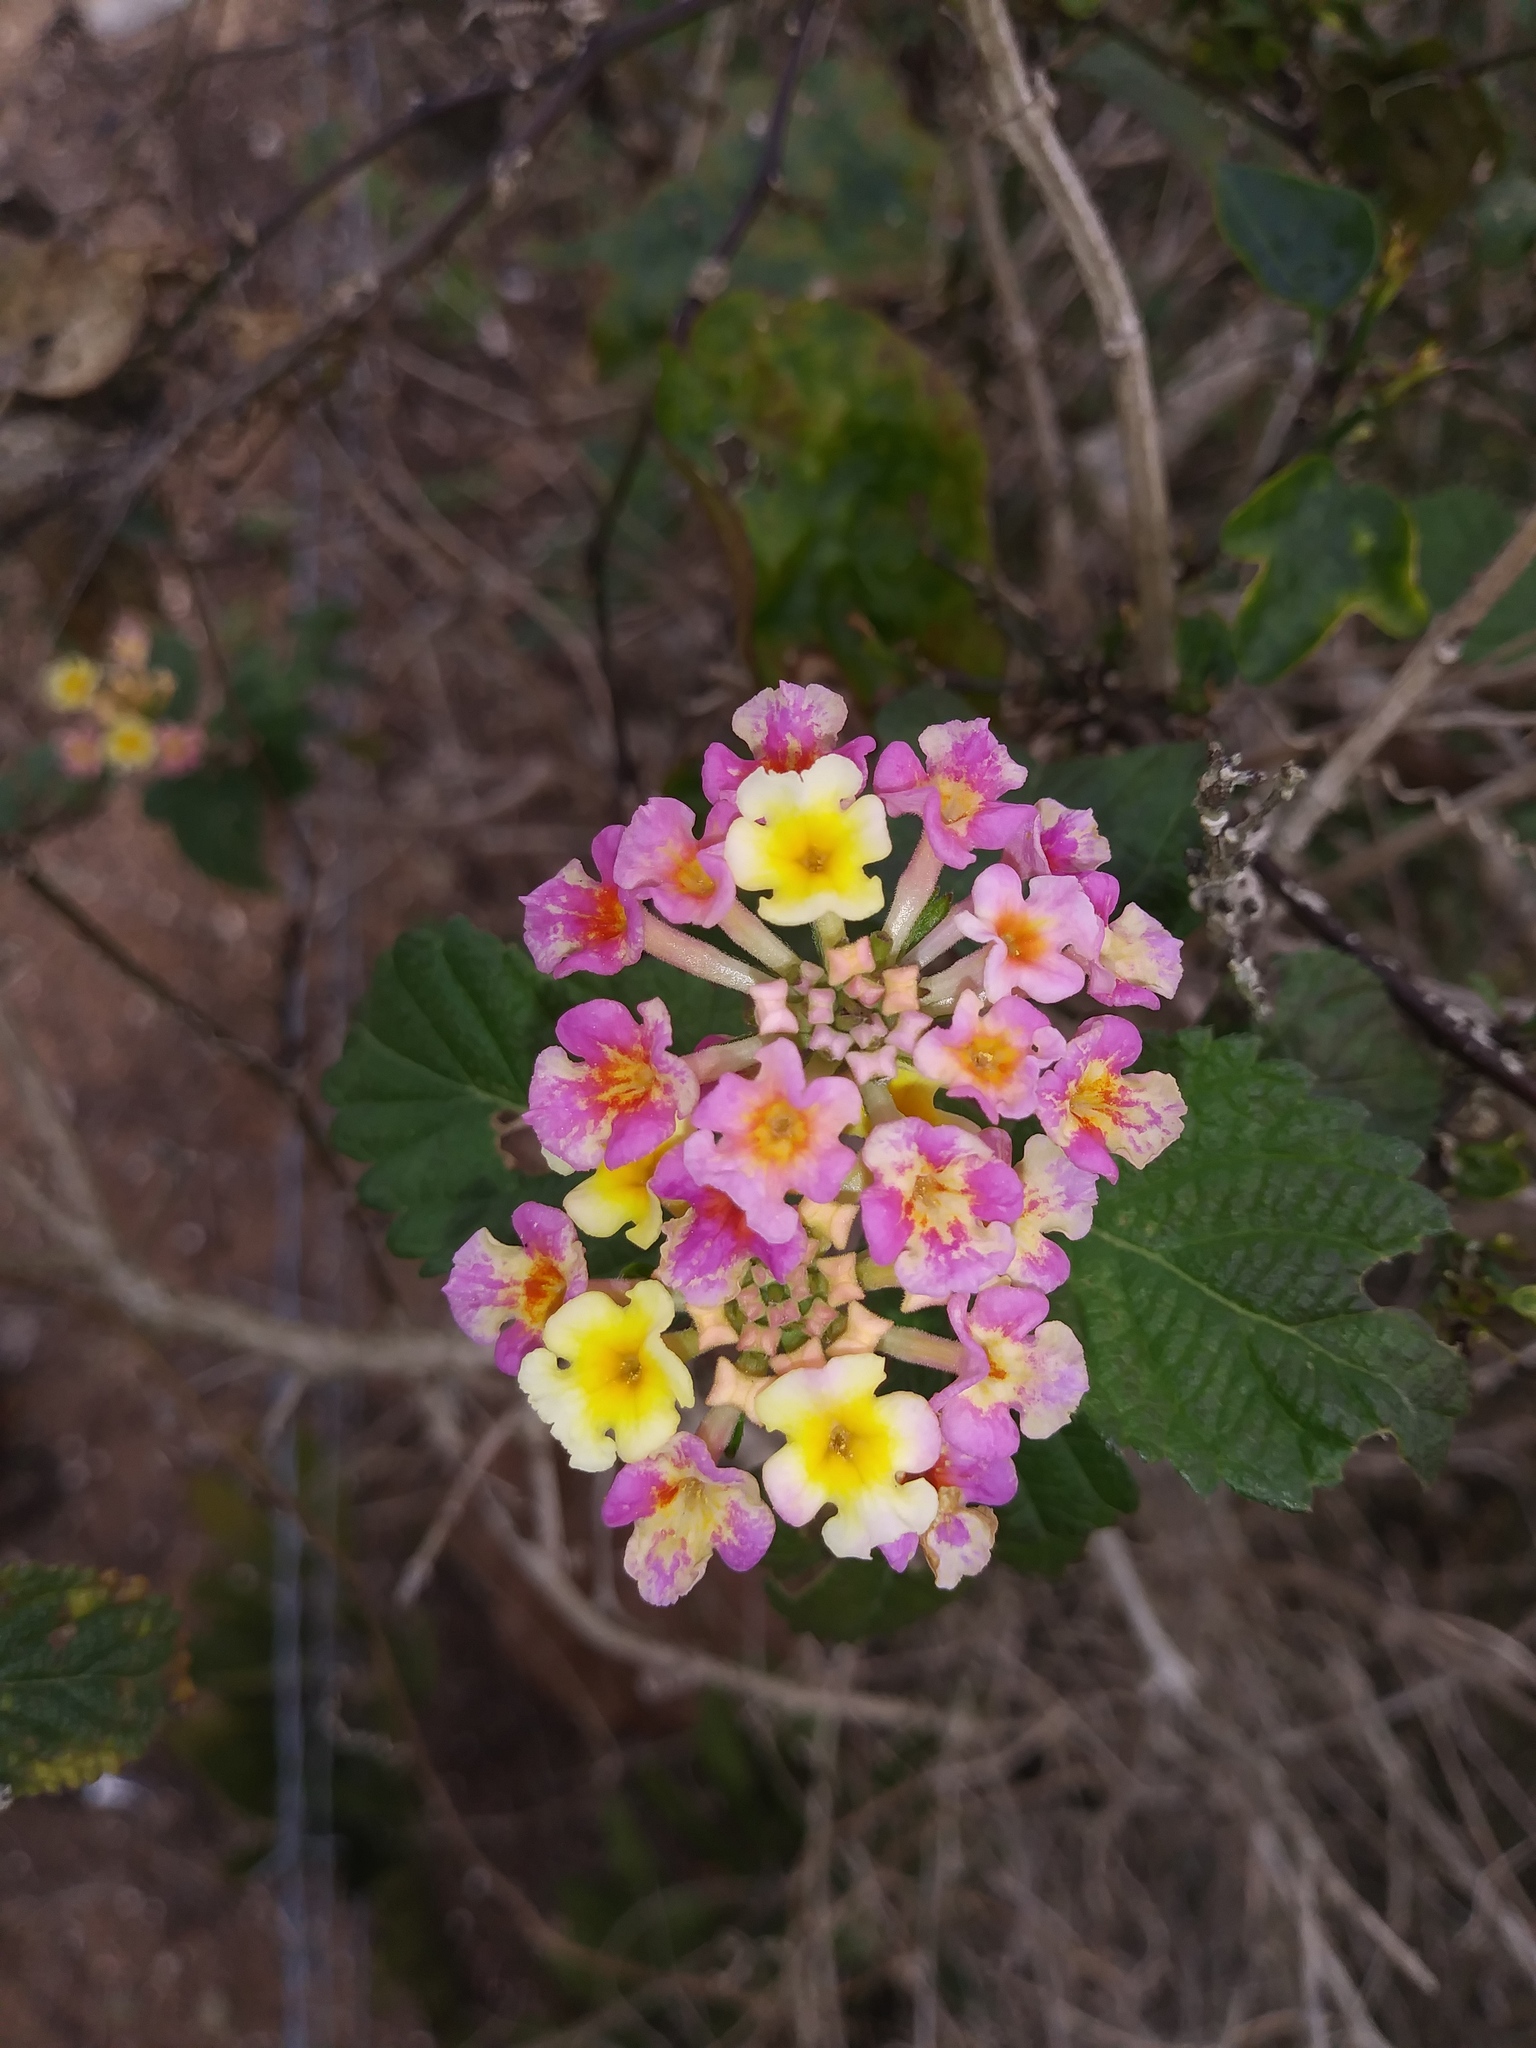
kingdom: Plantae
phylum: Tracheophyta
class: Magnoliopsida
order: Lamiales
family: Verbenaceae
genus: Lantana
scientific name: Lantana camara
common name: Lantana
